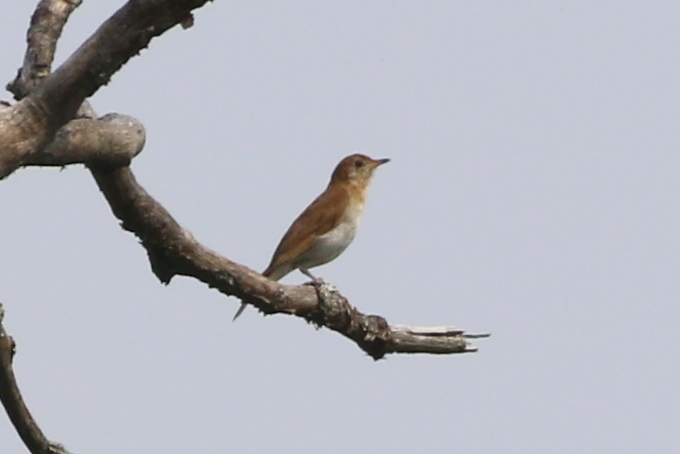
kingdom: Animalia
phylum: Chordata
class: Aves
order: Passeriformes
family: Turdidae
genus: Catharus
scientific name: Catharus fuscescens
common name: Veery
